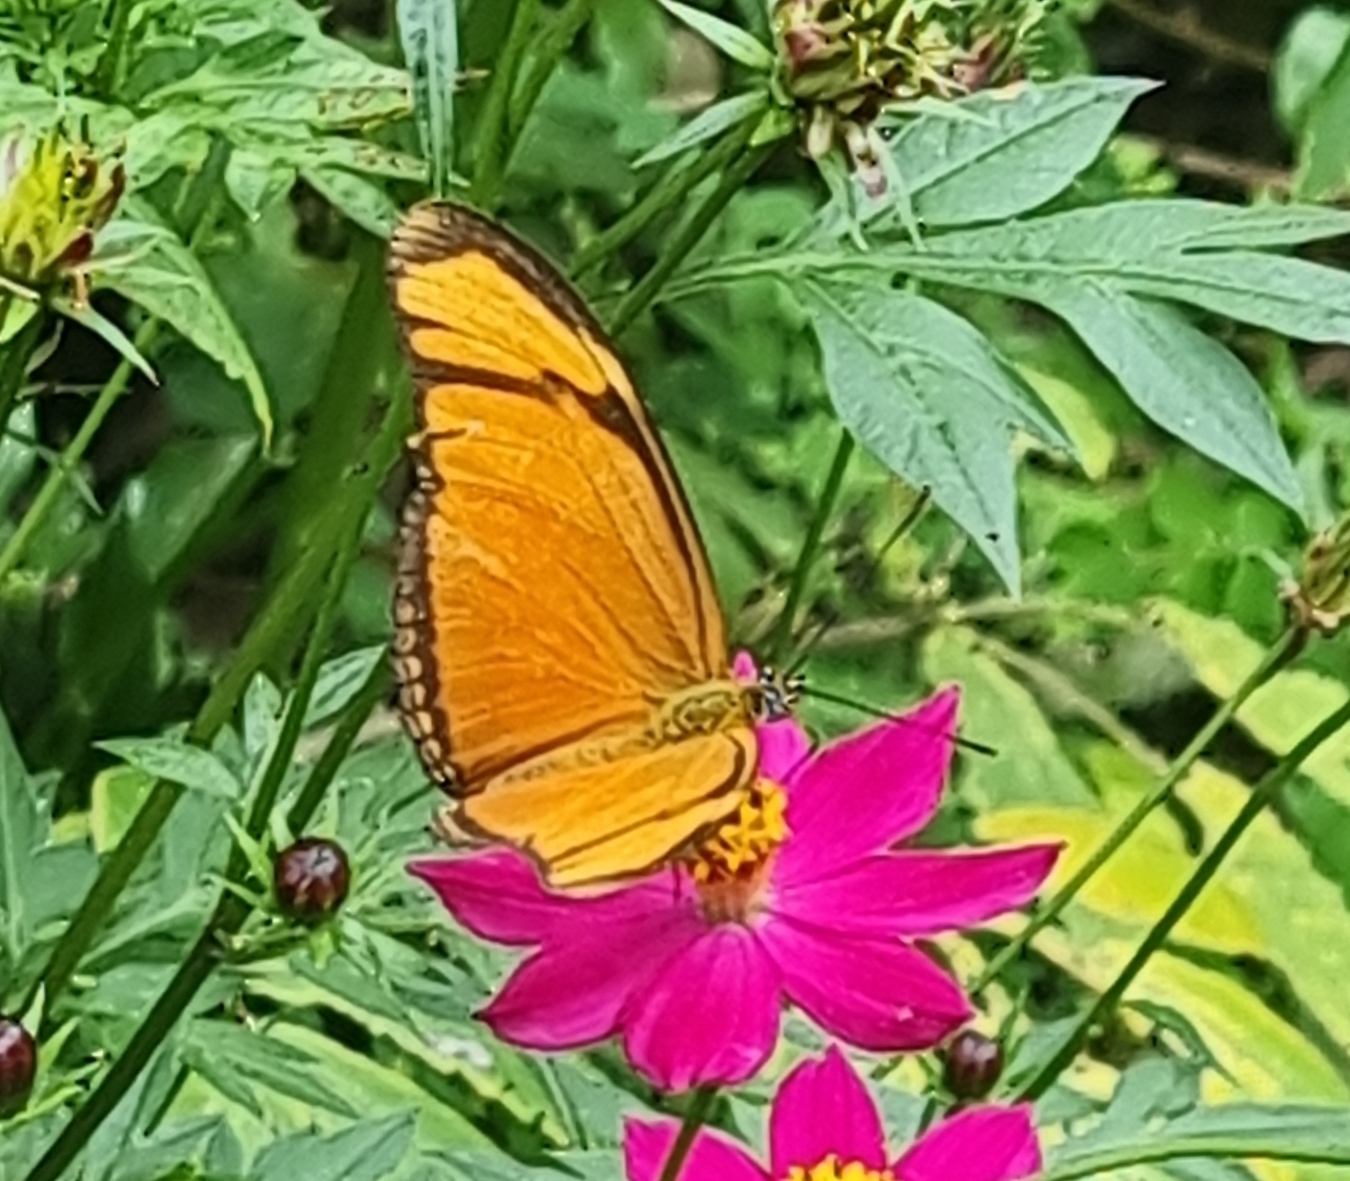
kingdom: Animalia
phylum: Arthropoda
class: Insecta
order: Lepidoptera
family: Nymphalidae
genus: Dryas
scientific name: Dryas iulia
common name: Flambeau
